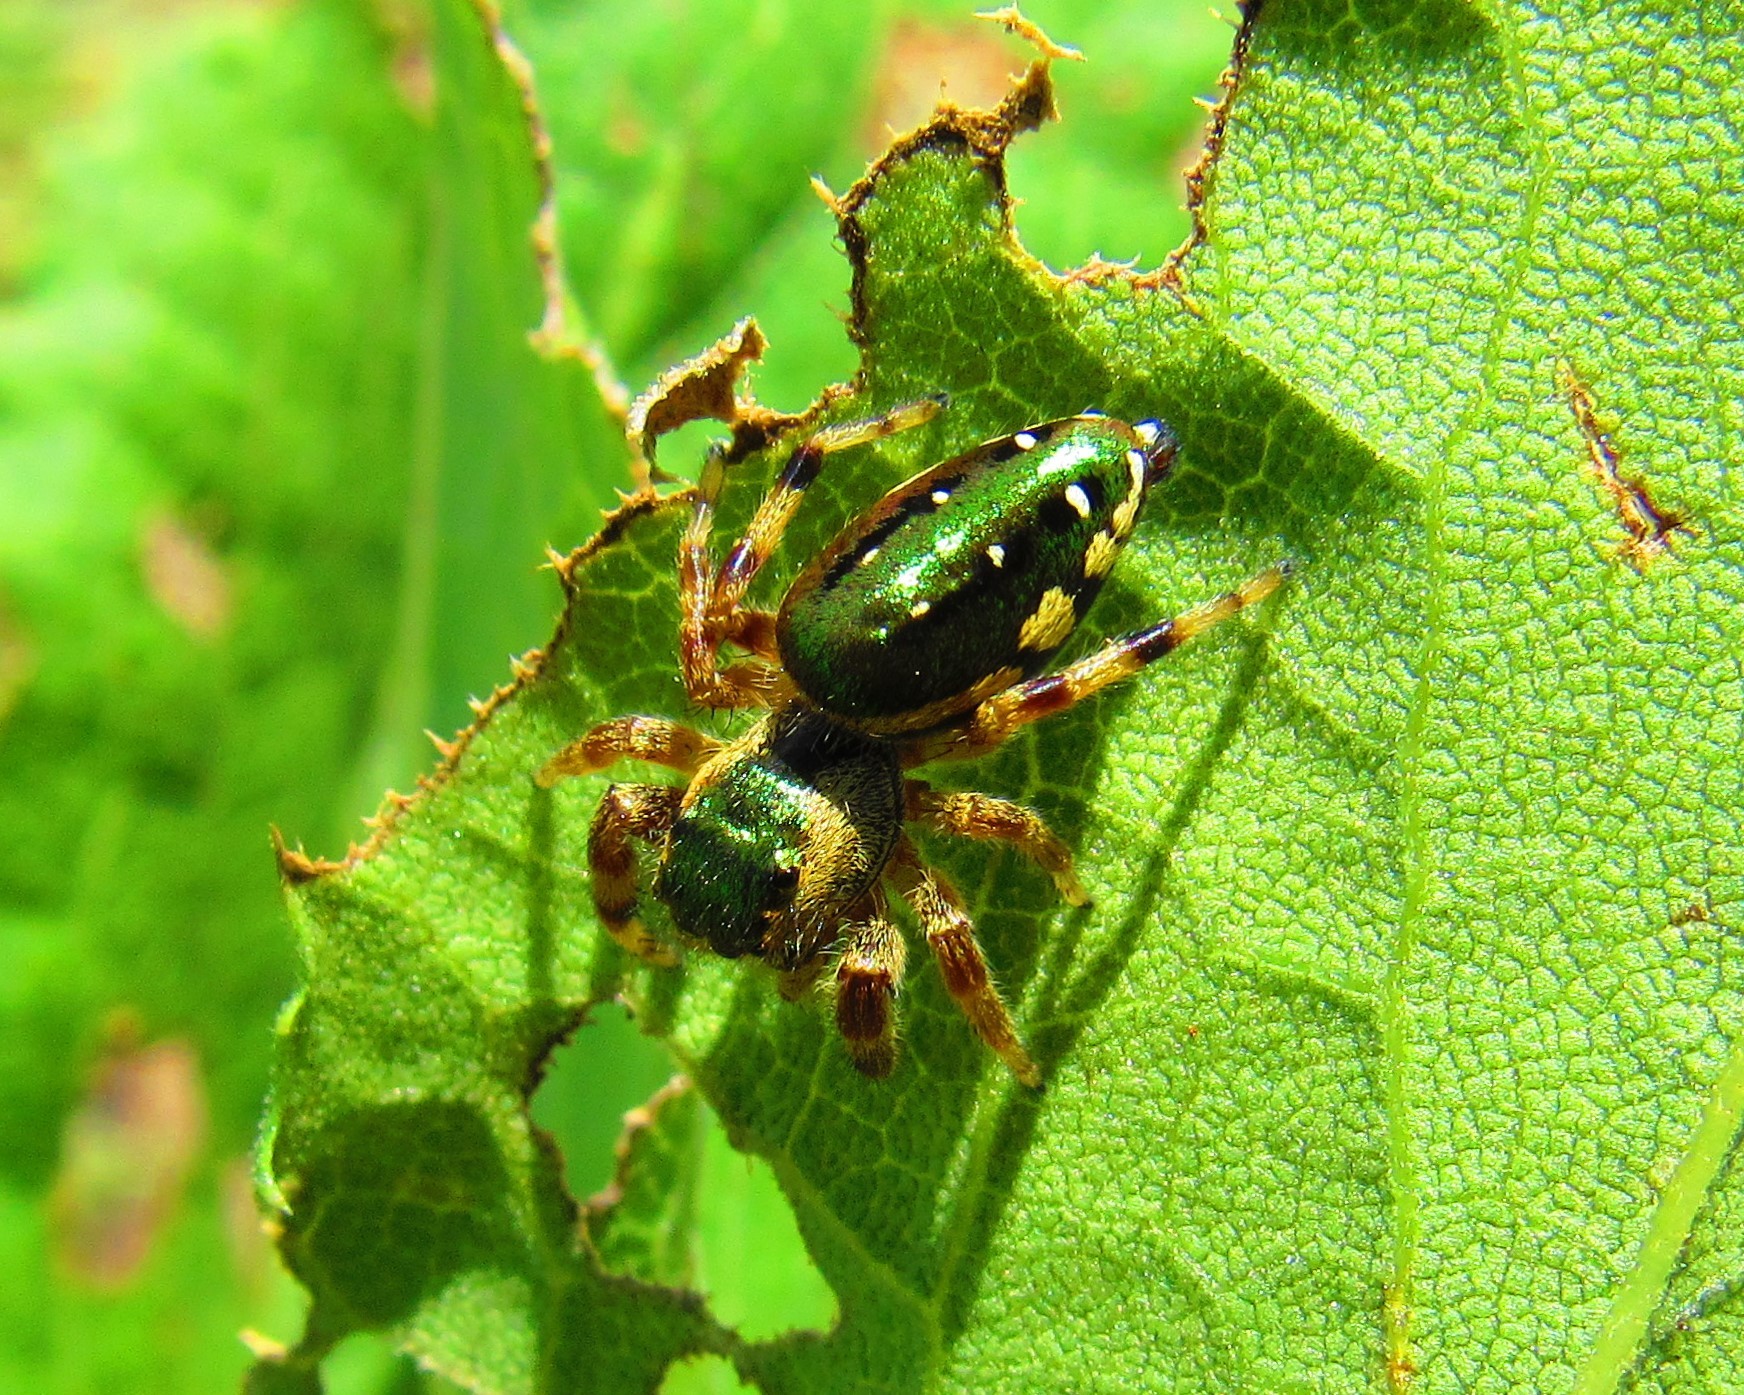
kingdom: Animalia
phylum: Arthropoda
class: Arachnida
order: Araneae
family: Salticidae
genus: Paraphidippus
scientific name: Paraphidippus aurantius
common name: Jumping spiders
